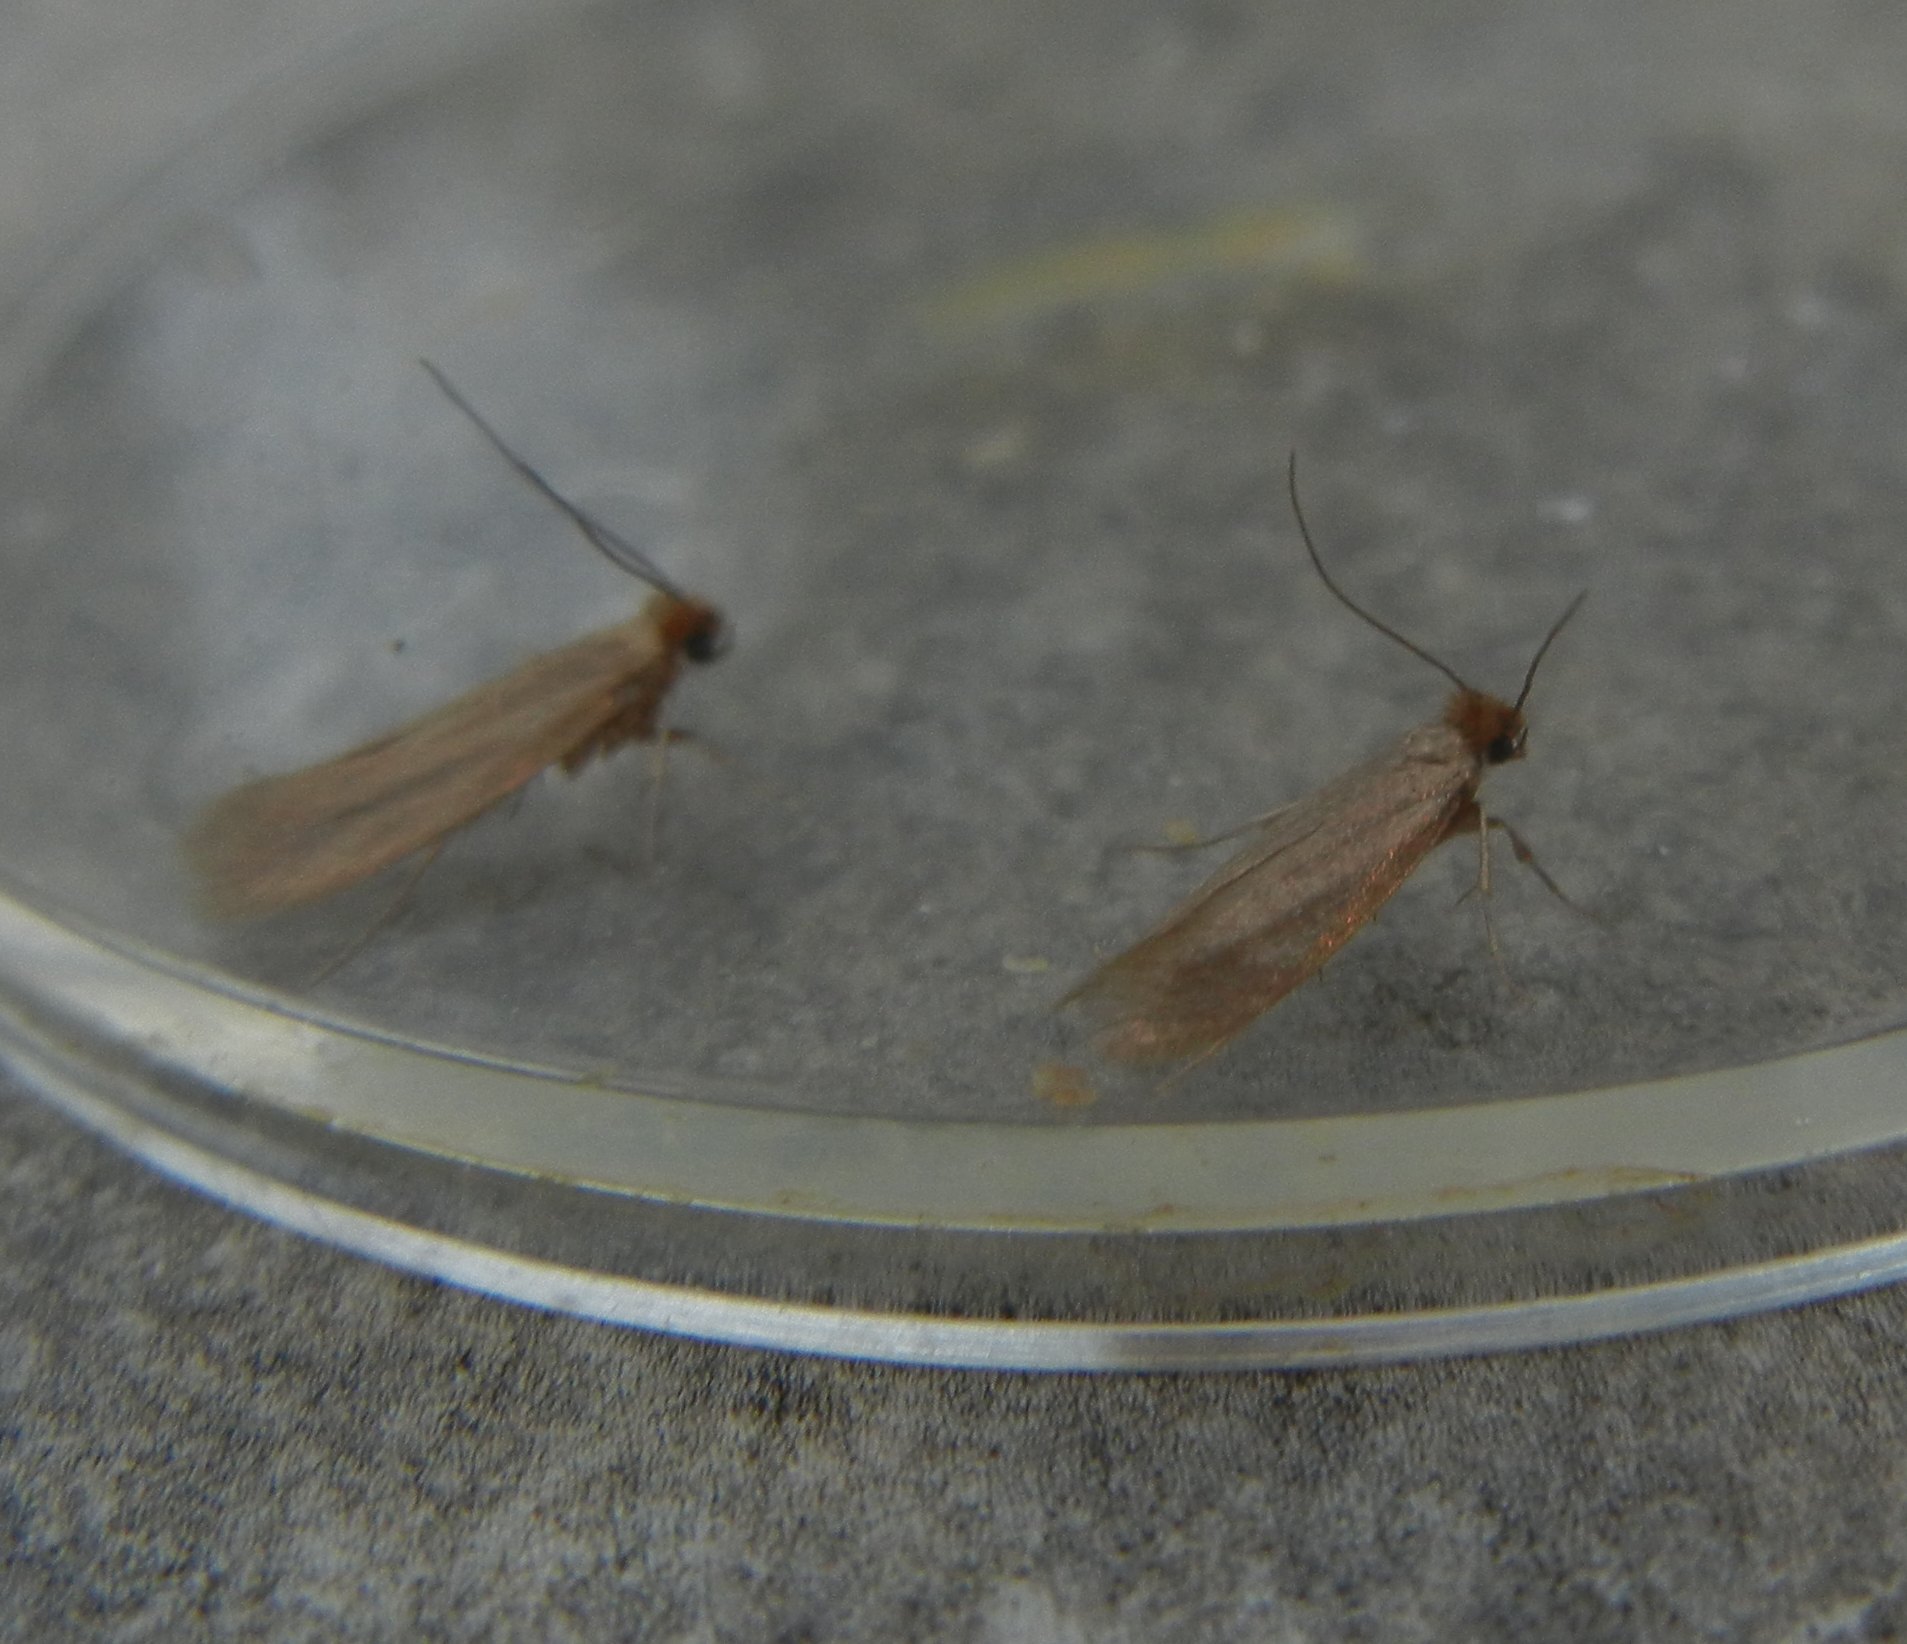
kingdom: Animalia
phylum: Arthropoda
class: Insecta
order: Lepidoptera
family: Tineidae
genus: Tineola
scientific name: Tineola bisselliella
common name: Webbing clothes moth
